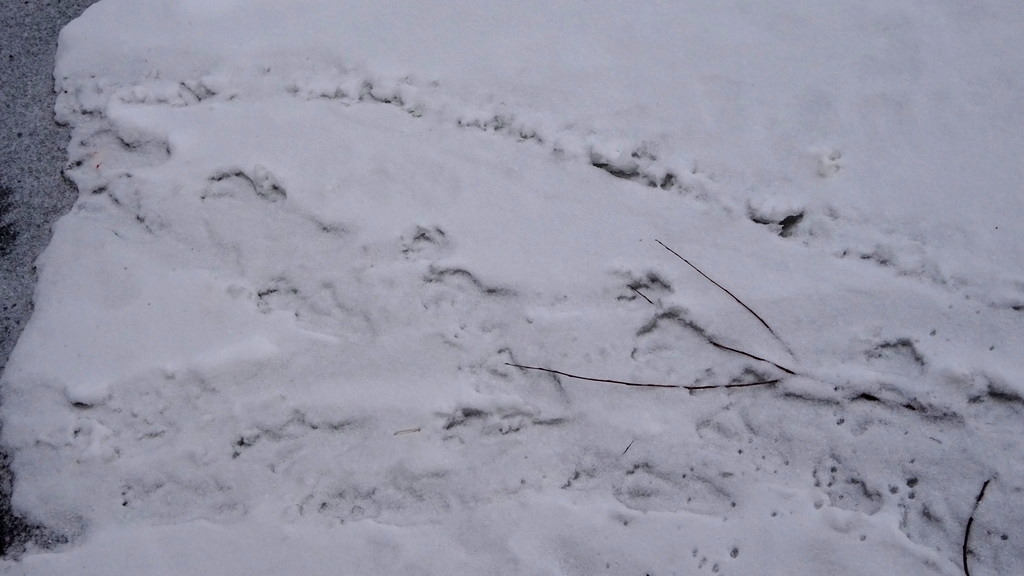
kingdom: Animalia
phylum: Chordata
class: Mammalia
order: Rodentia
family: Castoridae
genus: Castor
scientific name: Castor fiber
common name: Eurasian beaver
